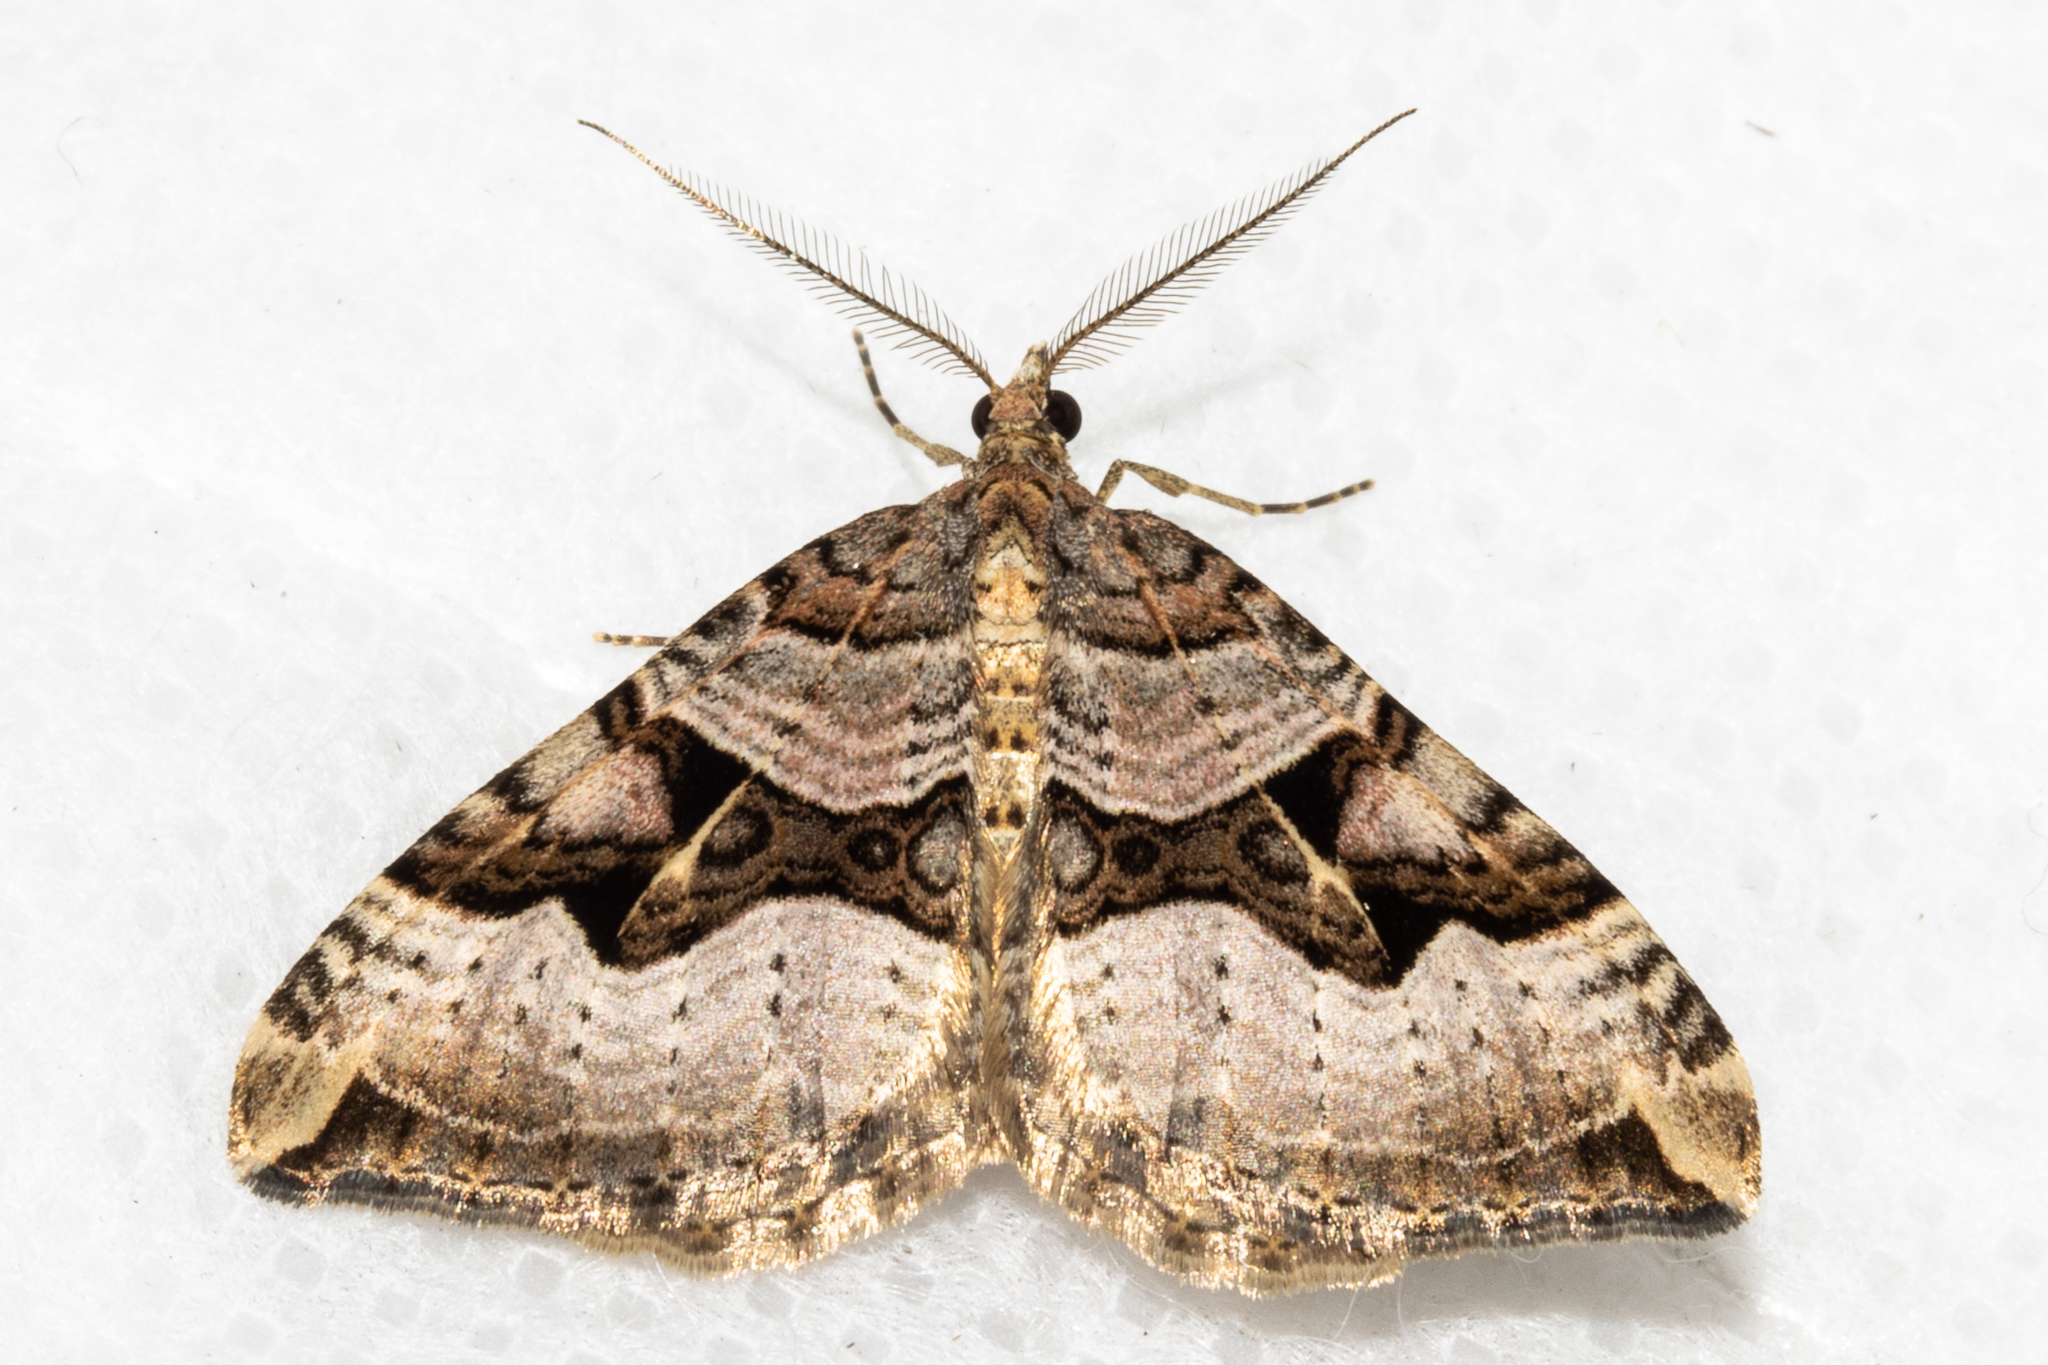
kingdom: Animalia
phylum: Arthropoda
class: Insecta
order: Lepidoptera
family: Geometridae
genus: Xanthorhoe
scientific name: Xanthorhoe semifissata
